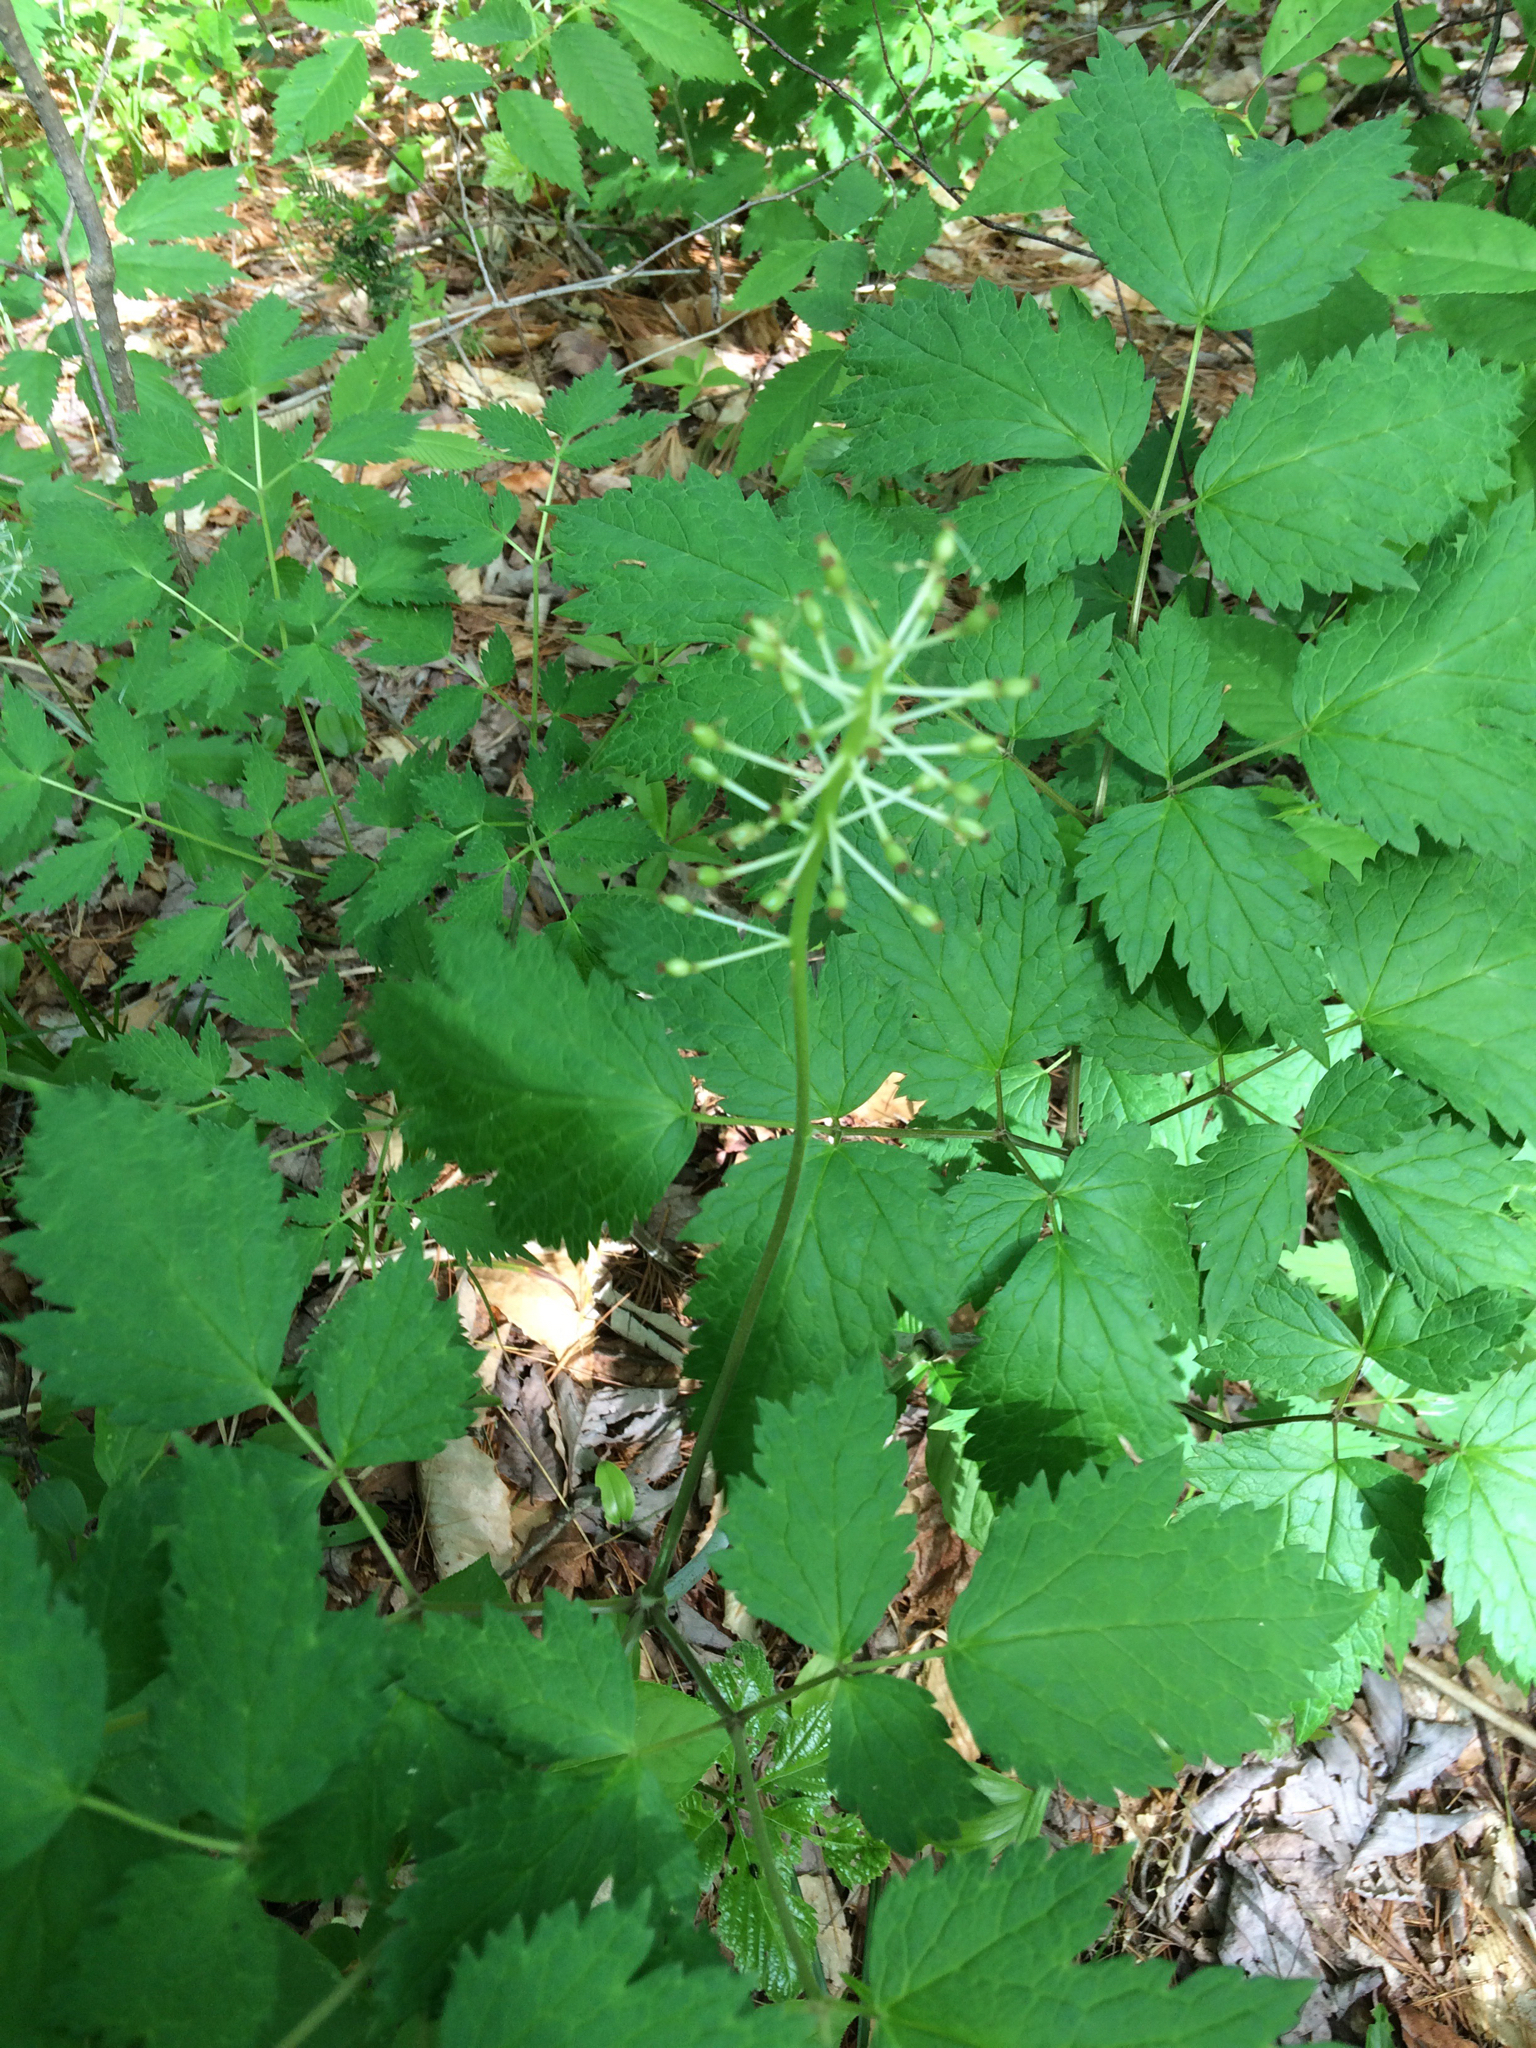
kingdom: Plantae
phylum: Tracheophyta
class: Magnoliopsida
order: Ranunculales
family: Ranunculaceae
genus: Actaea
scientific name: Actaea pachypoda
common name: Doll's-eyes
